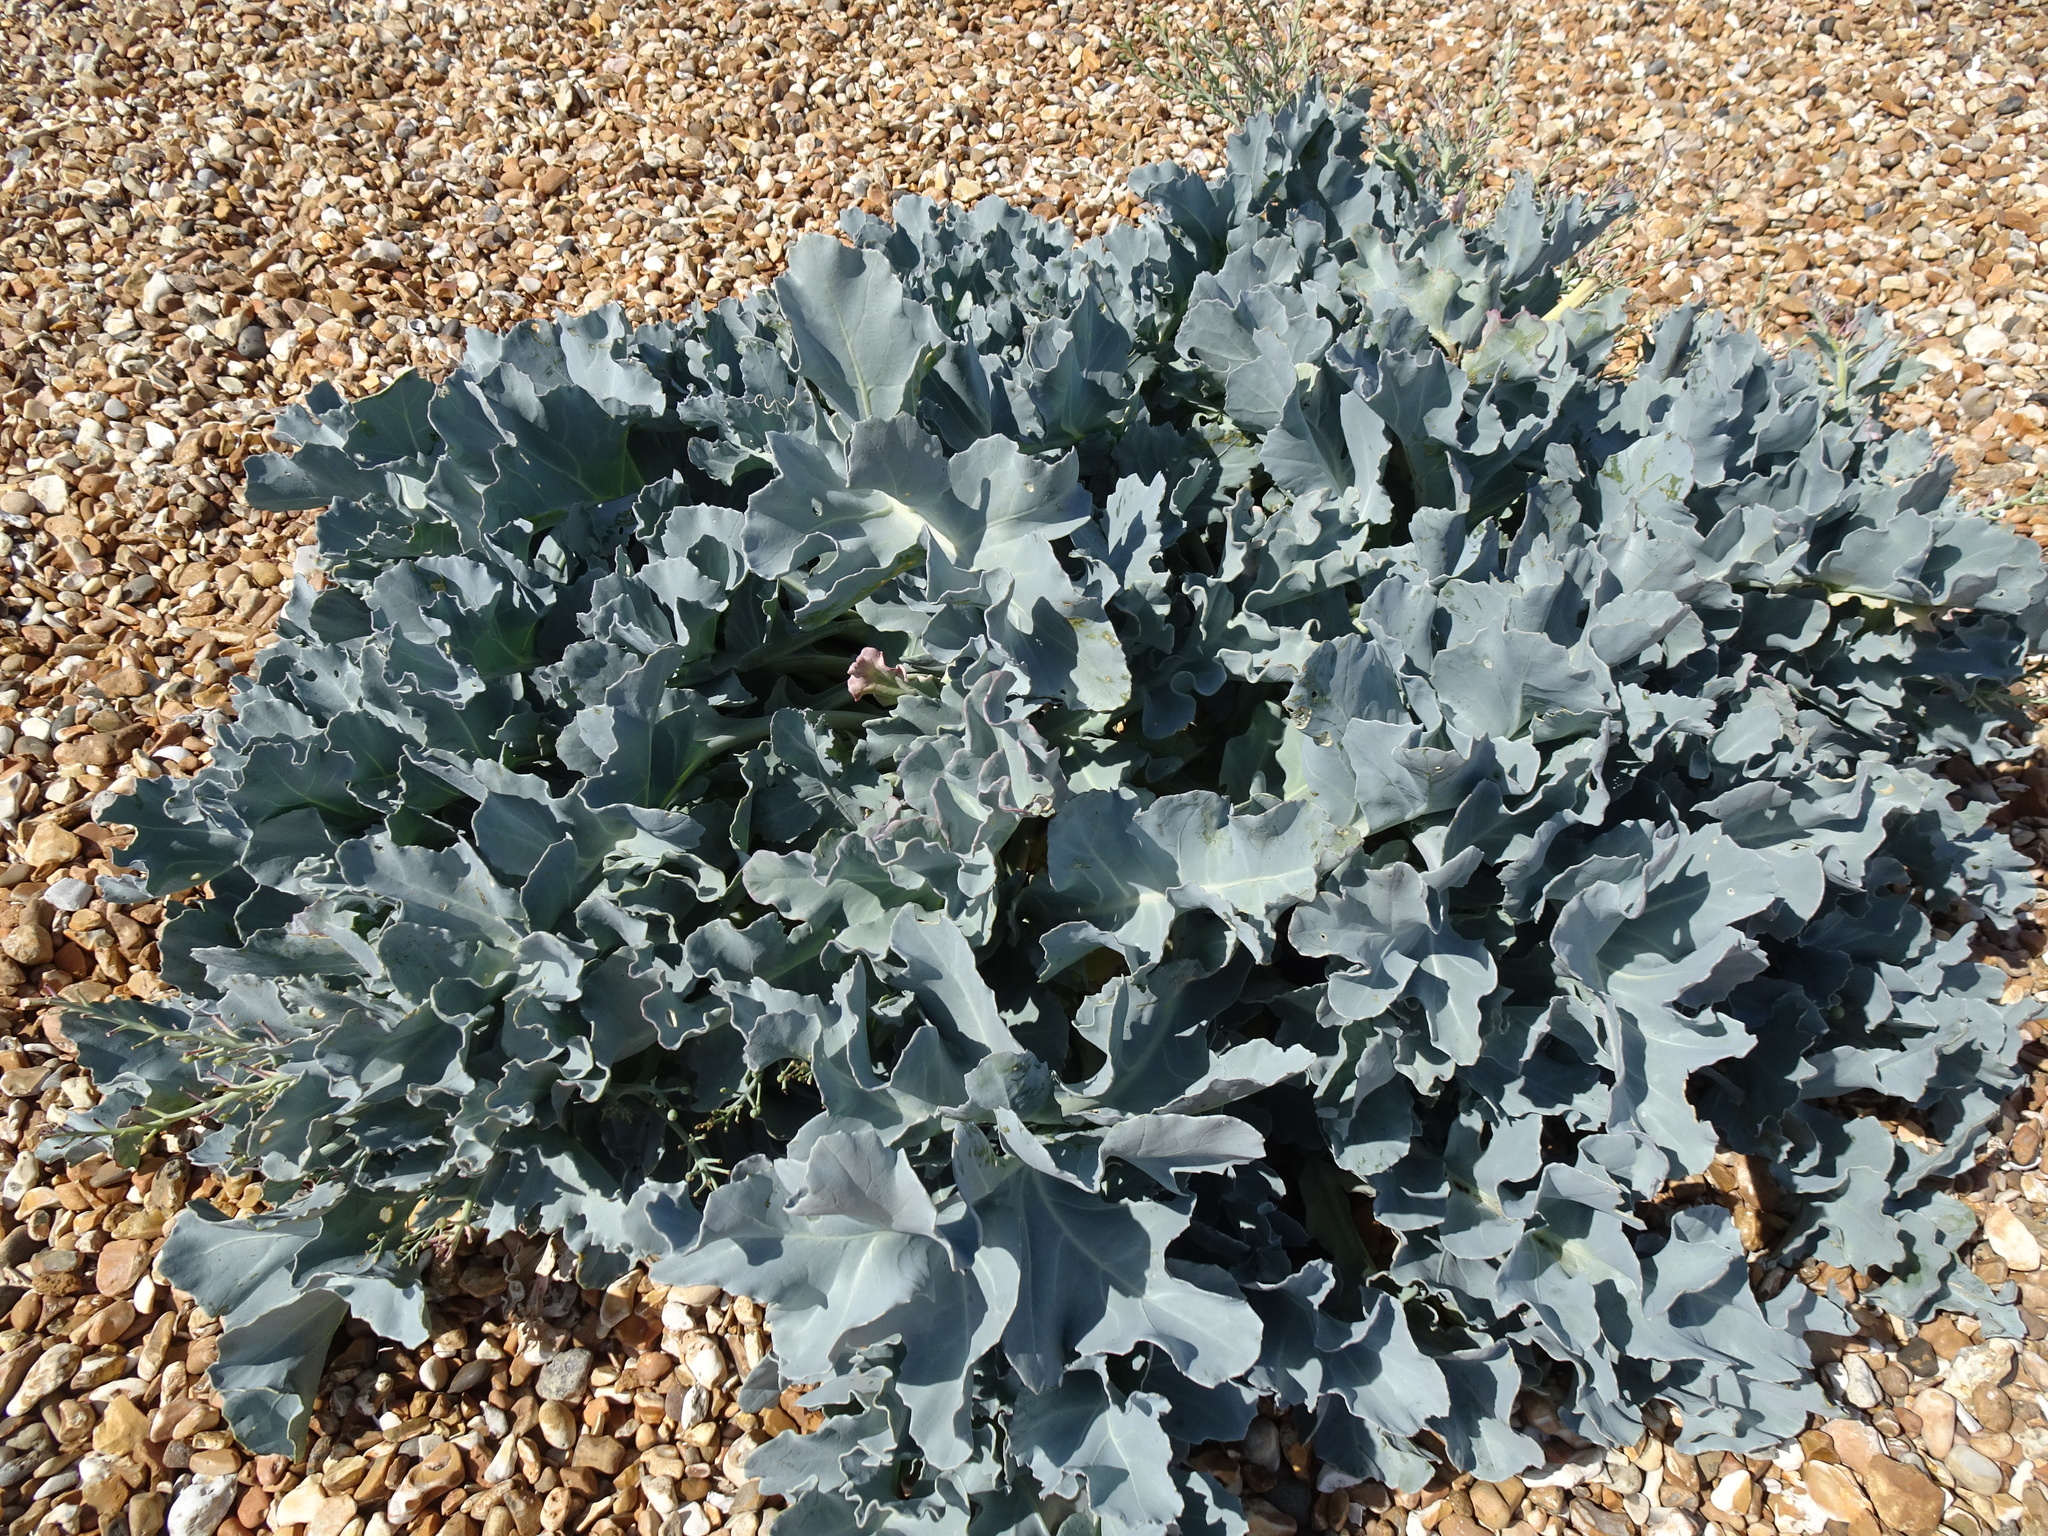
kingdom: Plantae
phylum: Tracheophyta
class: Magnoliopsida
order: Brassicales
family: Brassicaceae
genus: Crambe
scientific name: Crambe maritima
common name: Sea-kale
